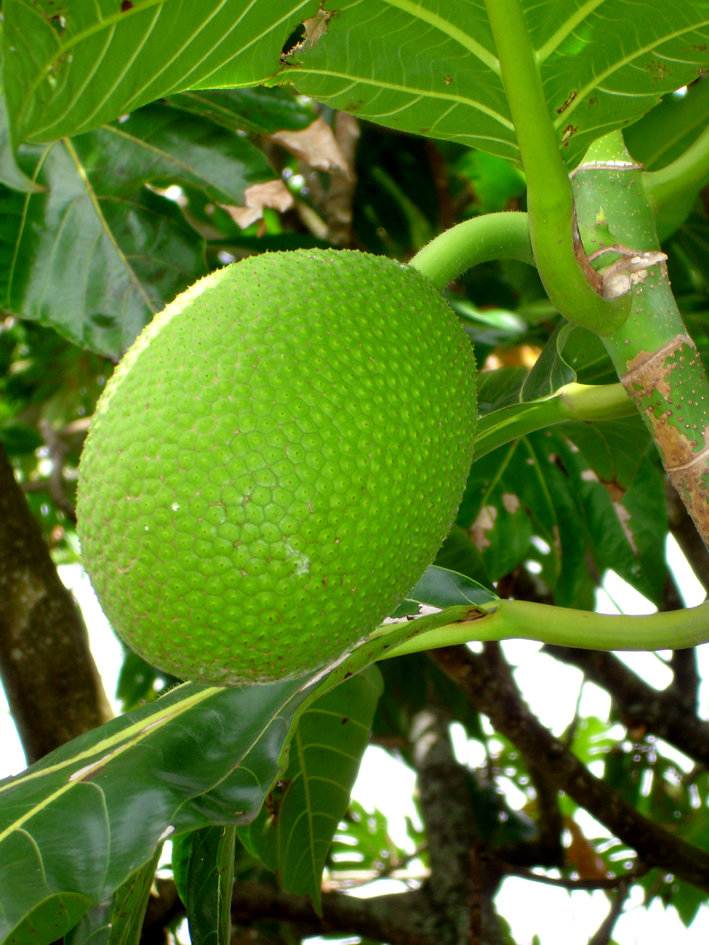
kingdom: Plantae
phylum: Tracheophyta
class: Magnoliopsida
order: Rosales
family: Moraceae
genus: Artocarpus
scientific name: Artocarpus altilis
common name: Breadfruit
